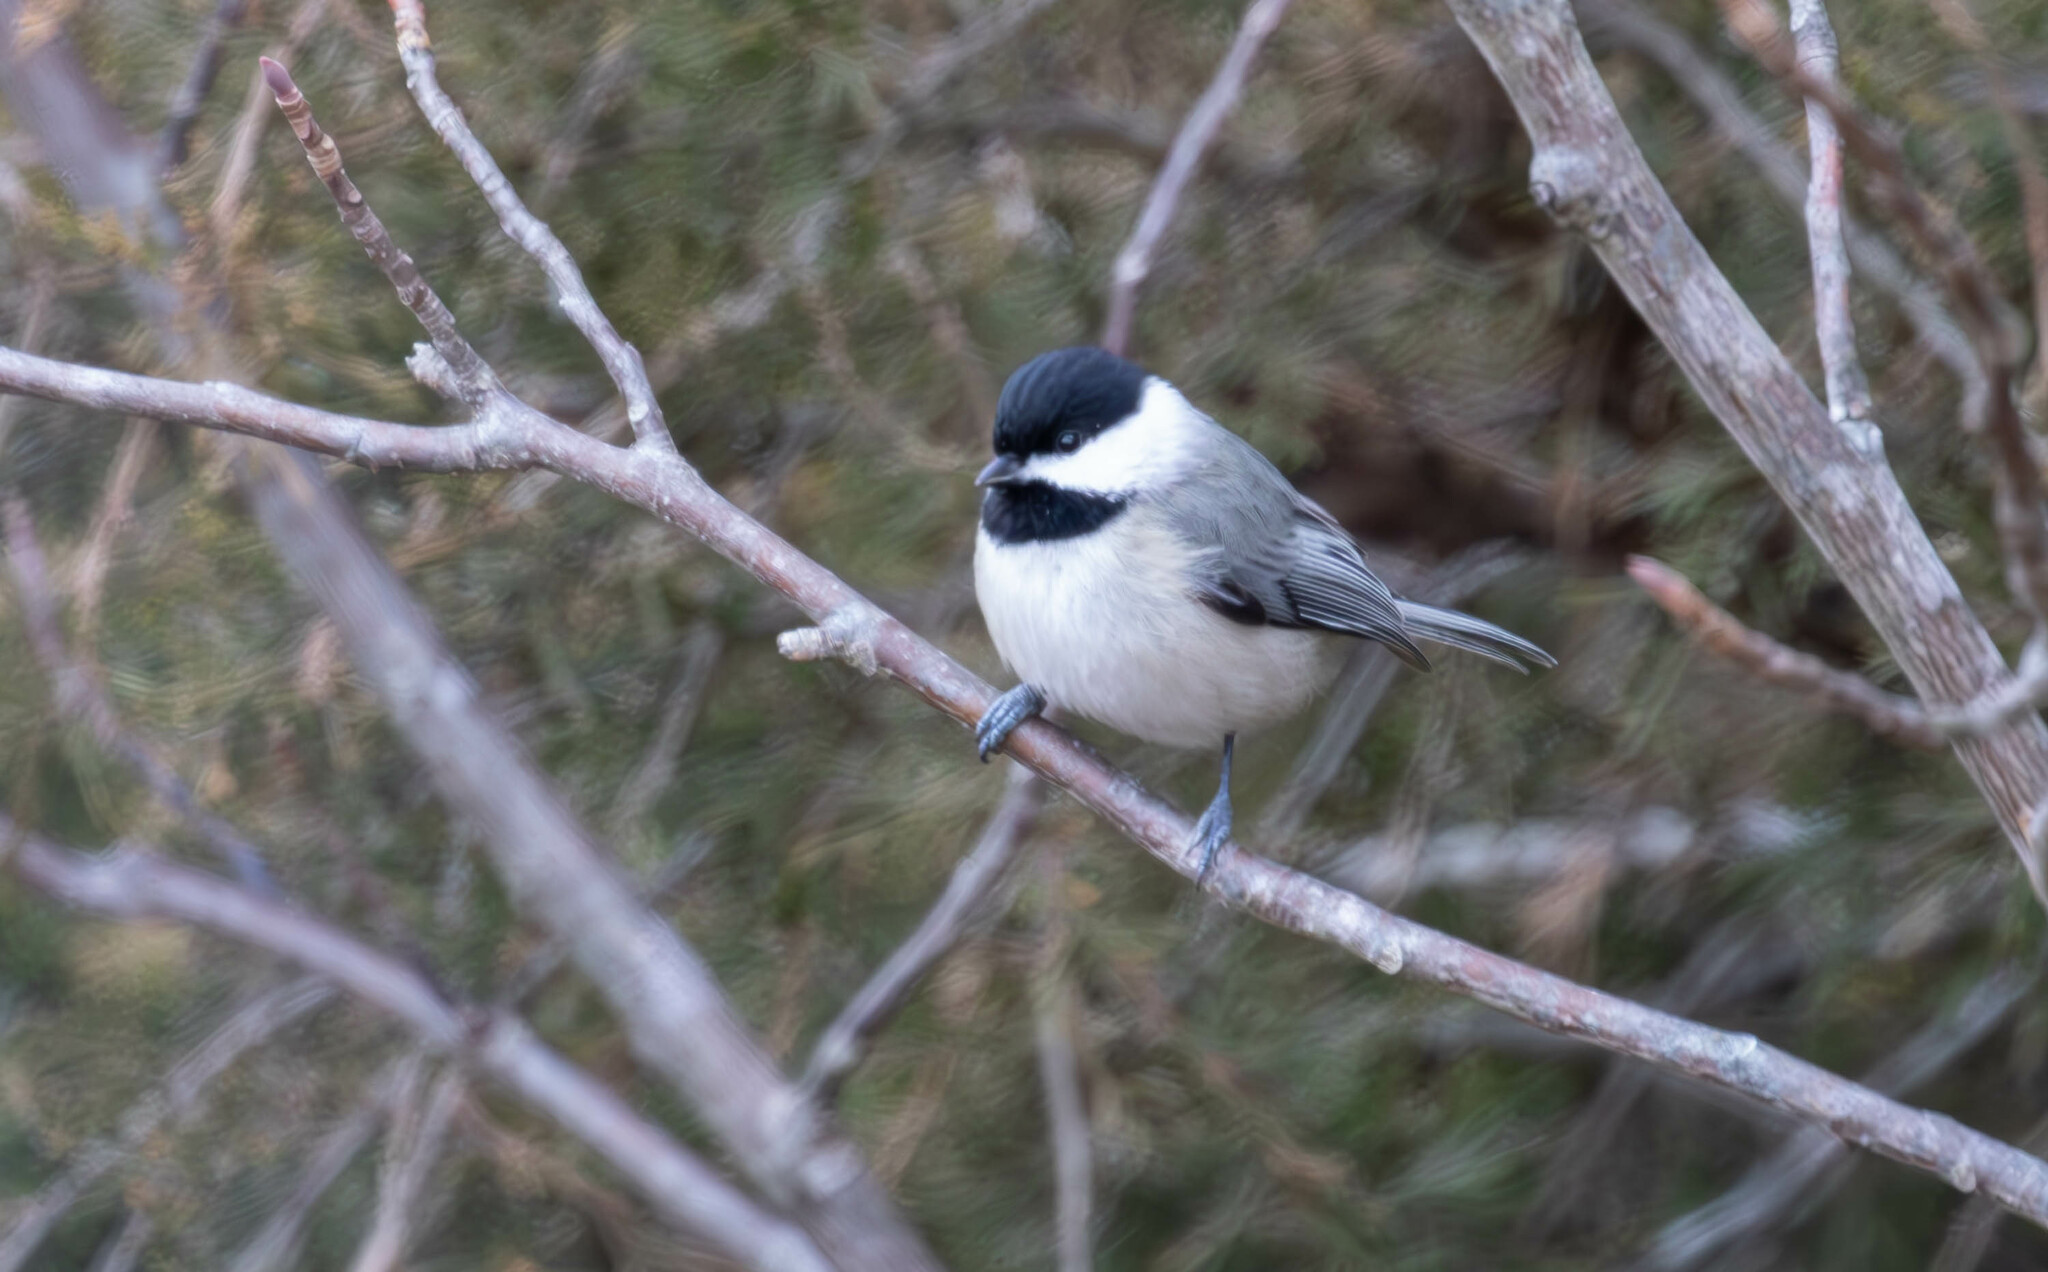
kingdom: Animalia
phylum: Chordata
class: Aves
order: Passeriformes
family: Paridae
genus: Poecile
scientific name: Poecile carolinensis
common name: Carolina chickadee
